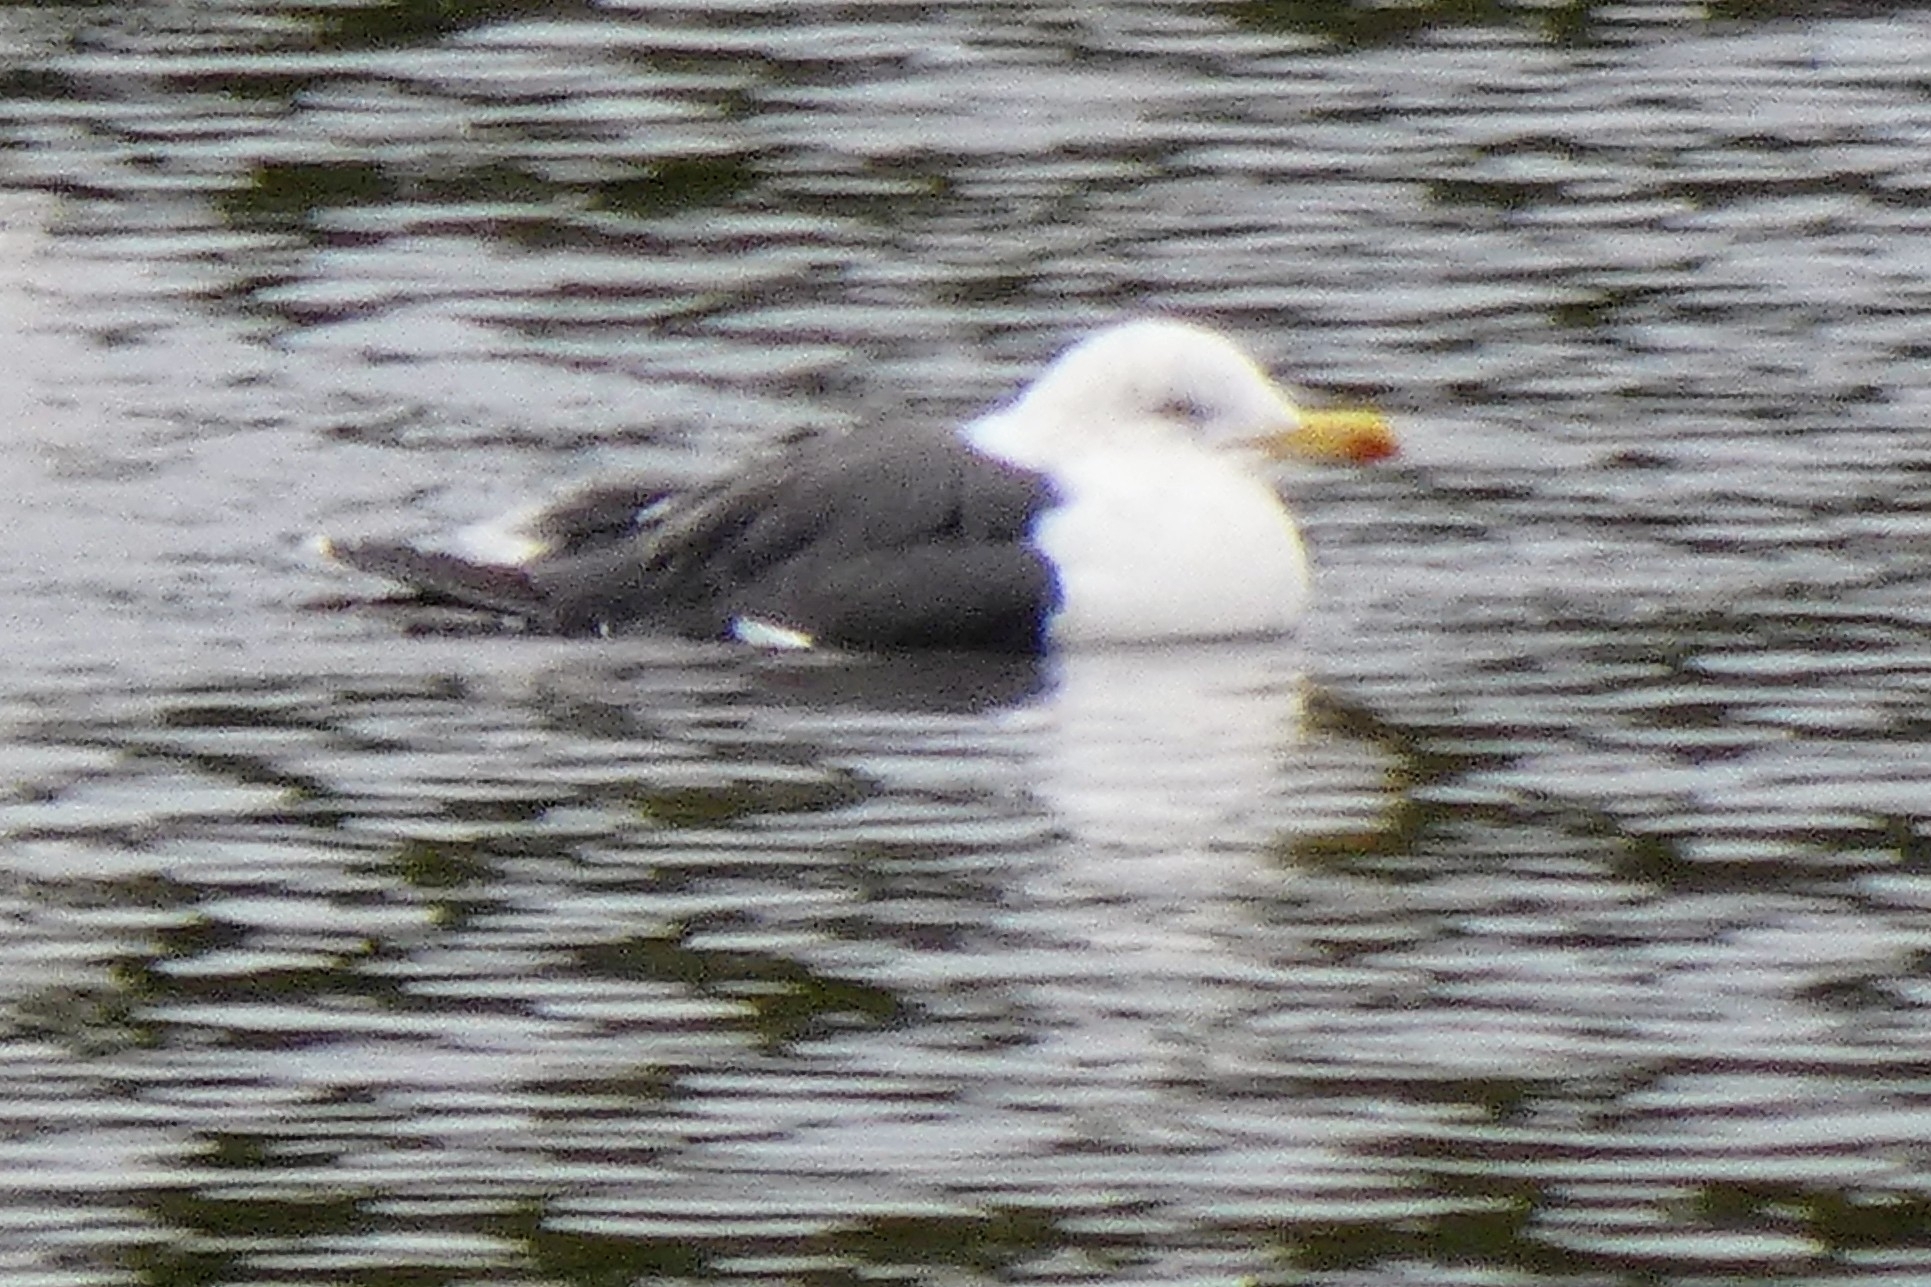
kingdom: Animalia
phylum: Chordata
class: Aves
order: Charadriiformes
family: Laridae
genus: Larus
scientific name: Larus marinus
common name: Great black-backed gull
